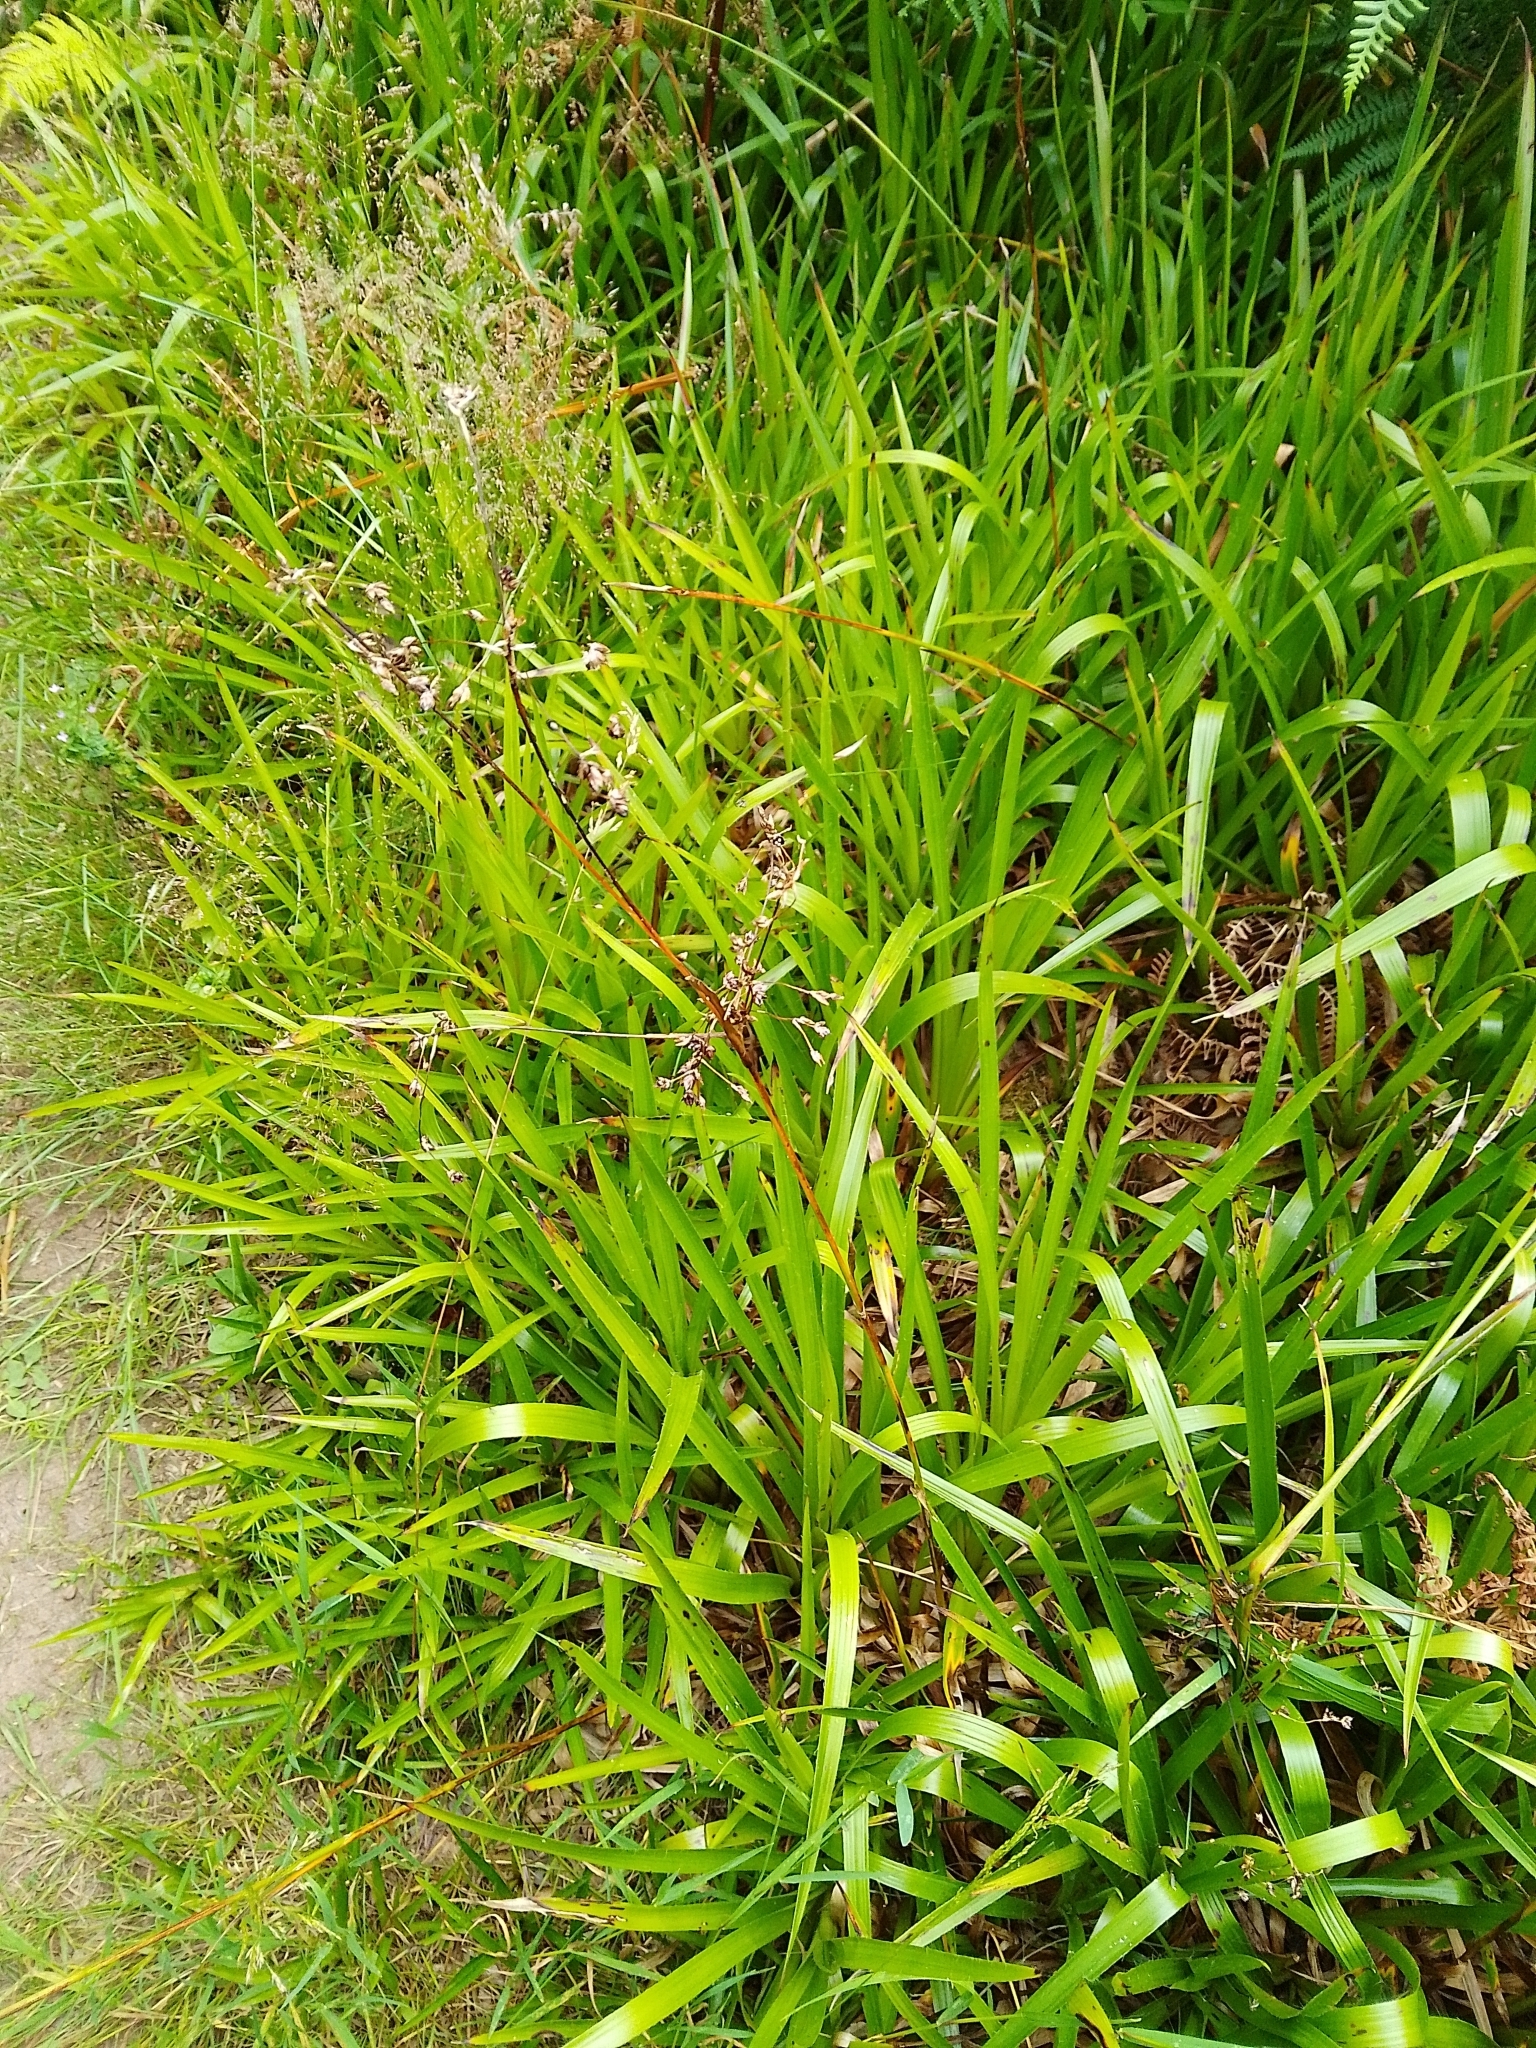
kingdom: Plantae
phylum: Tracheophyta
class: Liliopsida
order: Poales
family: Juncaceae
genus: Luzula
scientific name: Luzula sylvatica
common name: Great wood-rush
